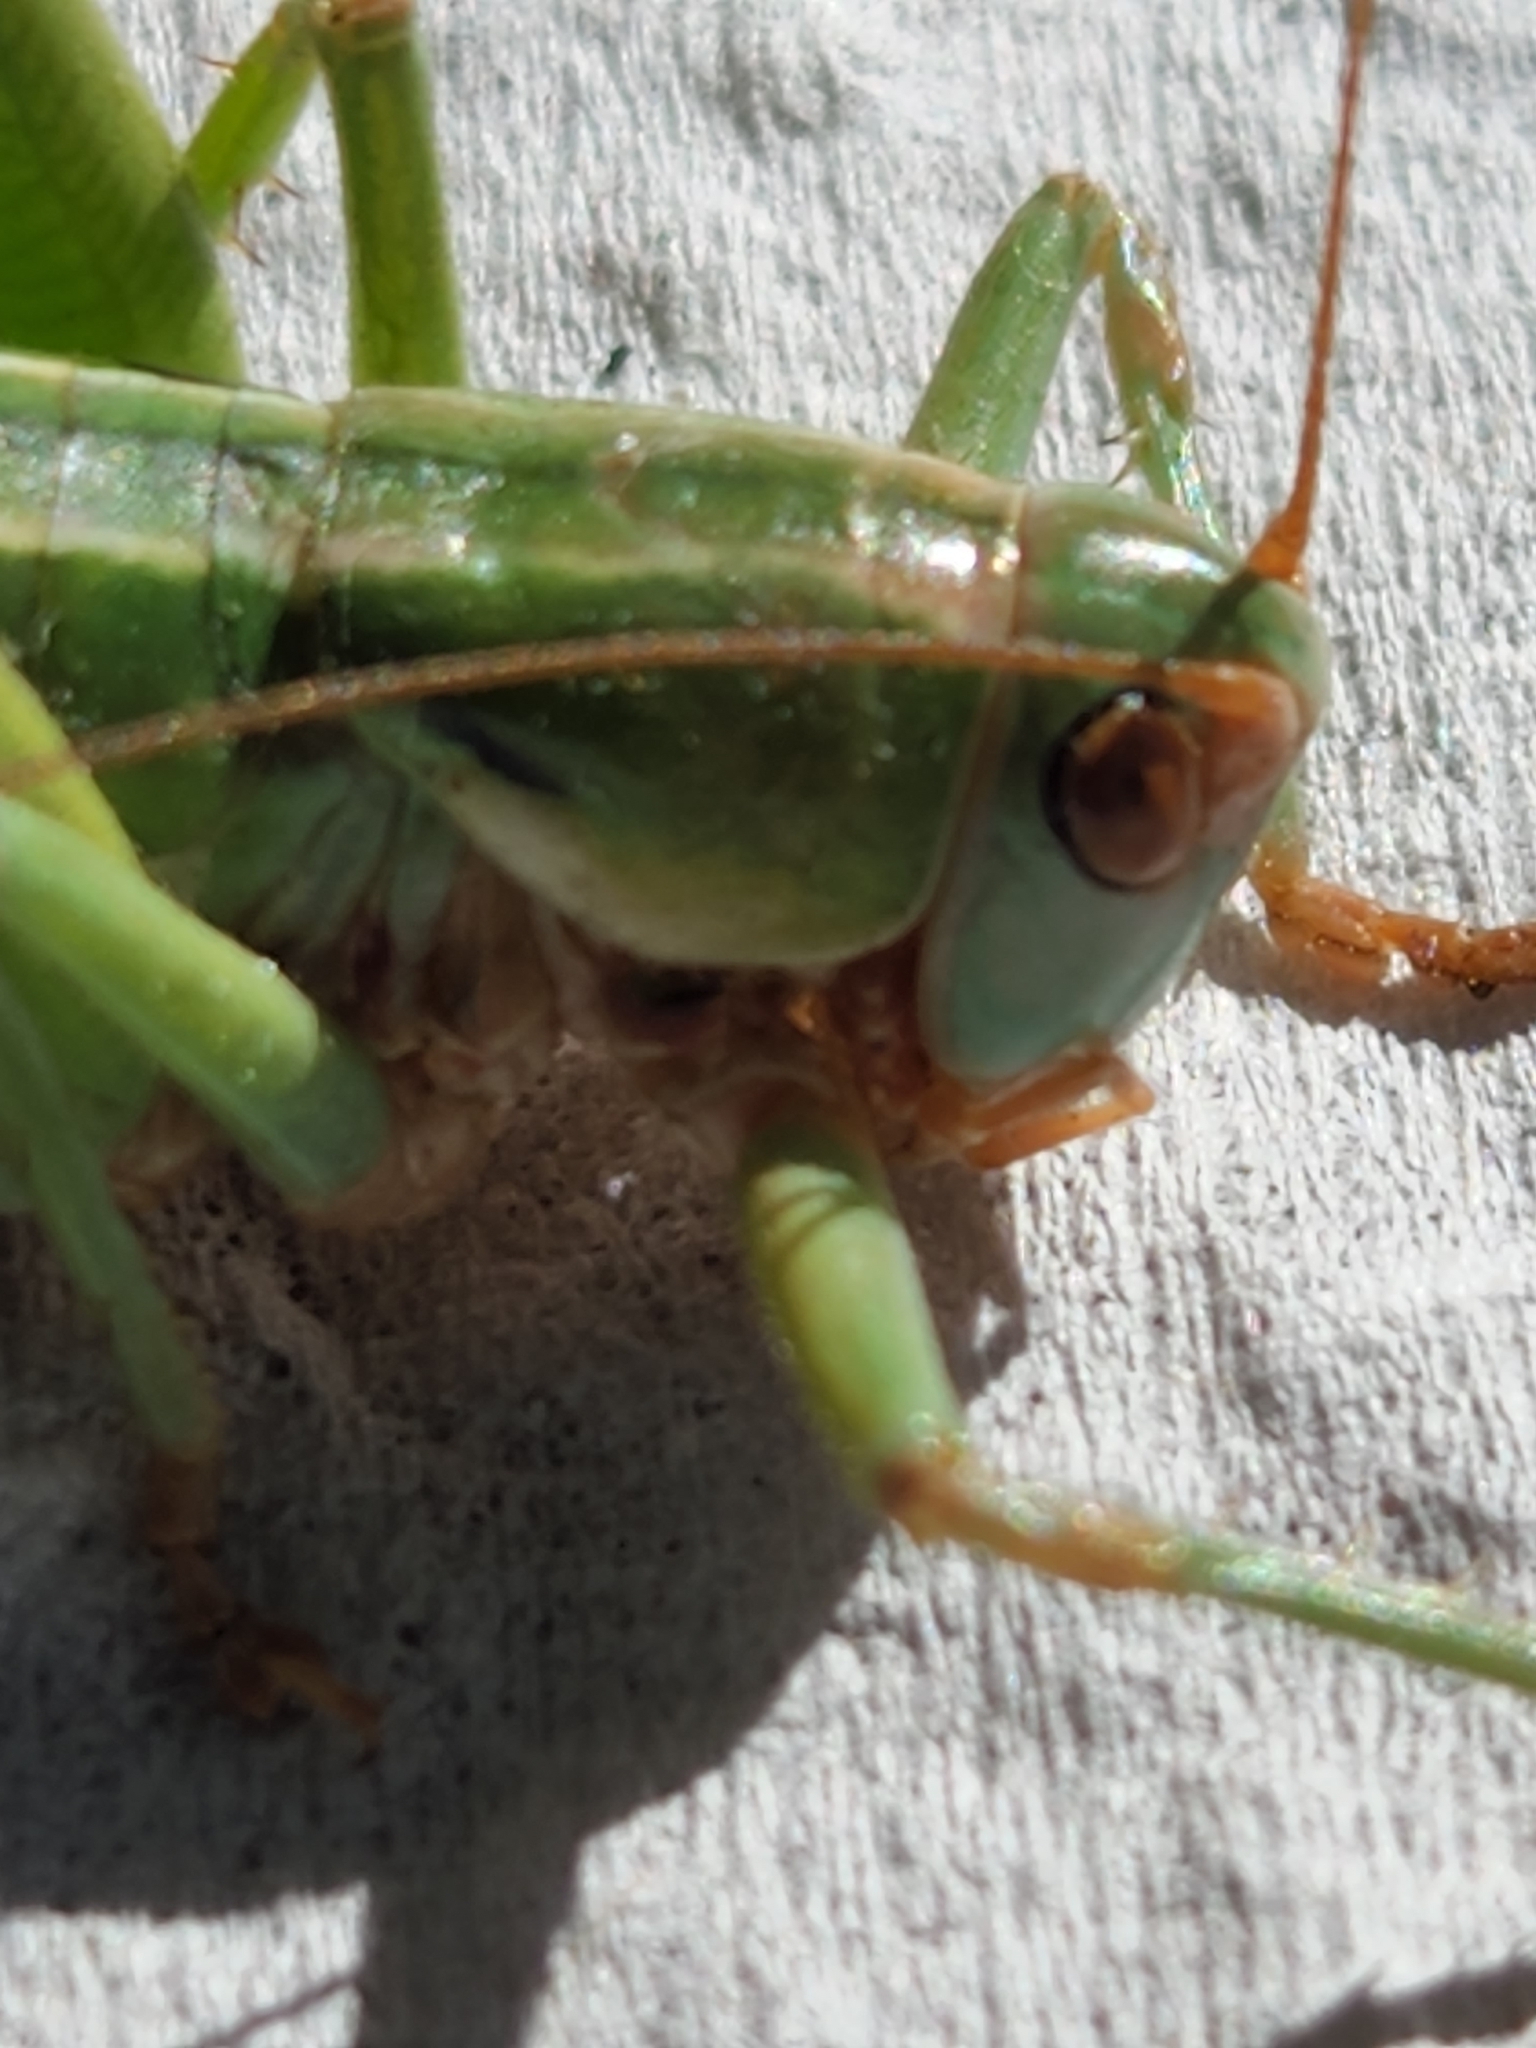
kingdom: Animalia
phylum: Arthropoda
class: Insecta
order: Orthoptera
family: Tettigoniidae
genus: Idiostatus
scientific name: Idiostatus viridis
